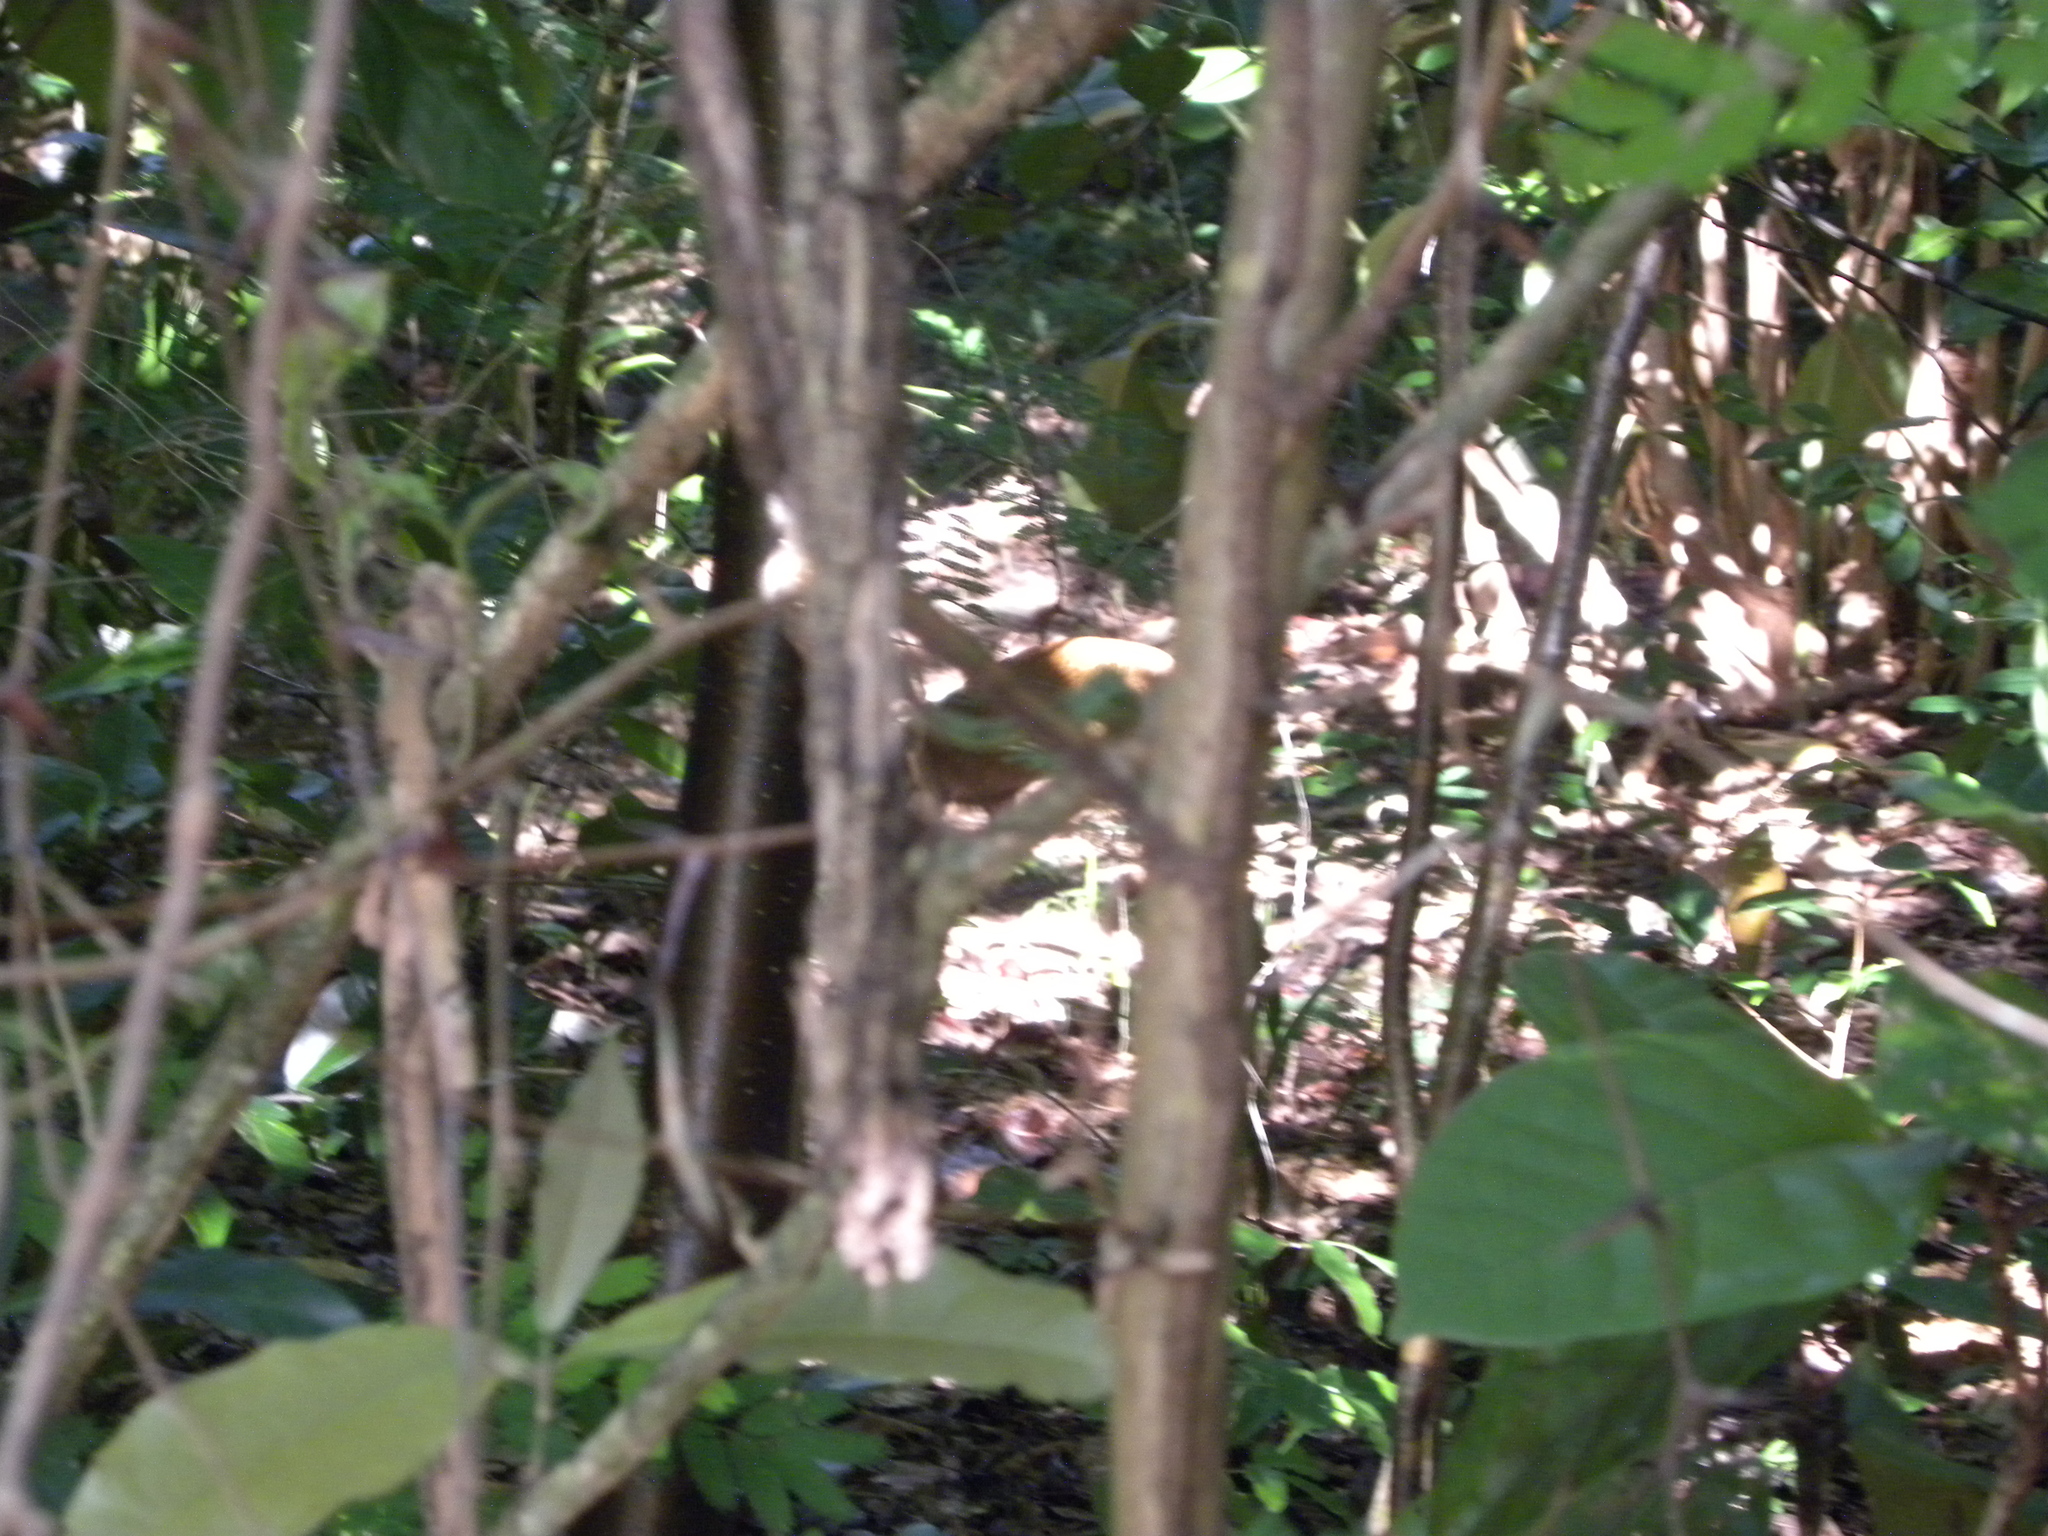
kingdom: Animalia
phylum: Chordata
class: Mammalia
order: Rodentia
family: Dasyproctidae
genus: Dasyprocta
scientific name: Dasyprocta ruatanica
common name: Roatán island agouti
